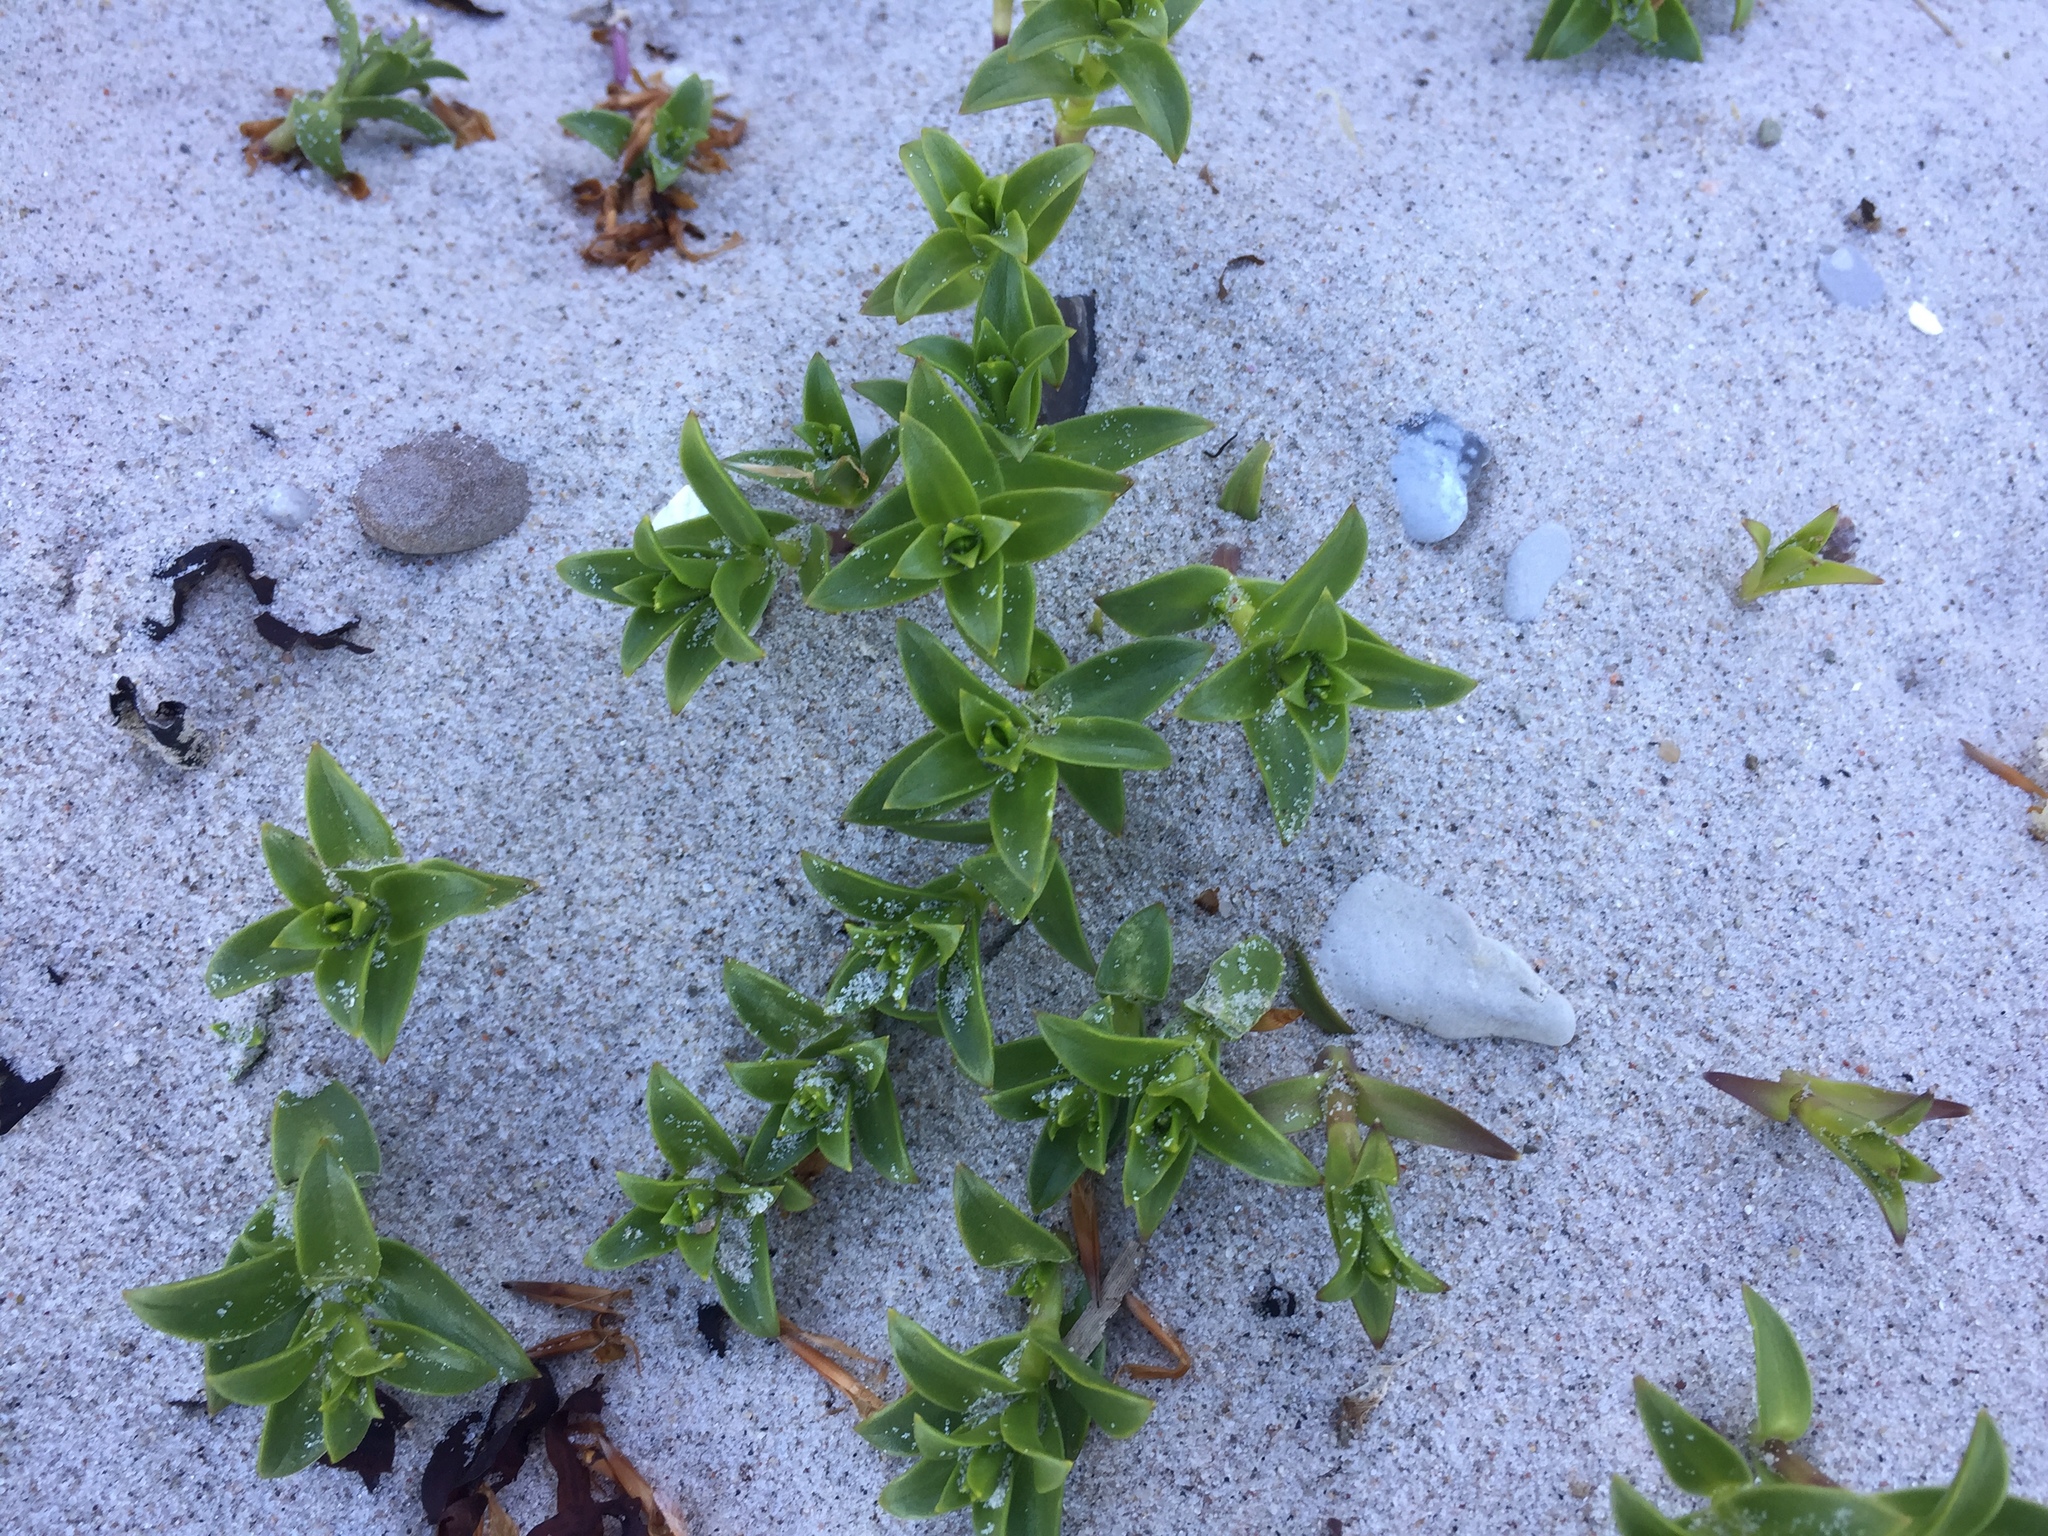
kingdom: Plantae
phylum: Tracheophyta
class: Magnoliopsida
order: Caryophyllales
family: Caryophyllaceae
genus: Honckenya
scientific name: Honckenya peploides
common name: Sea sandwort
